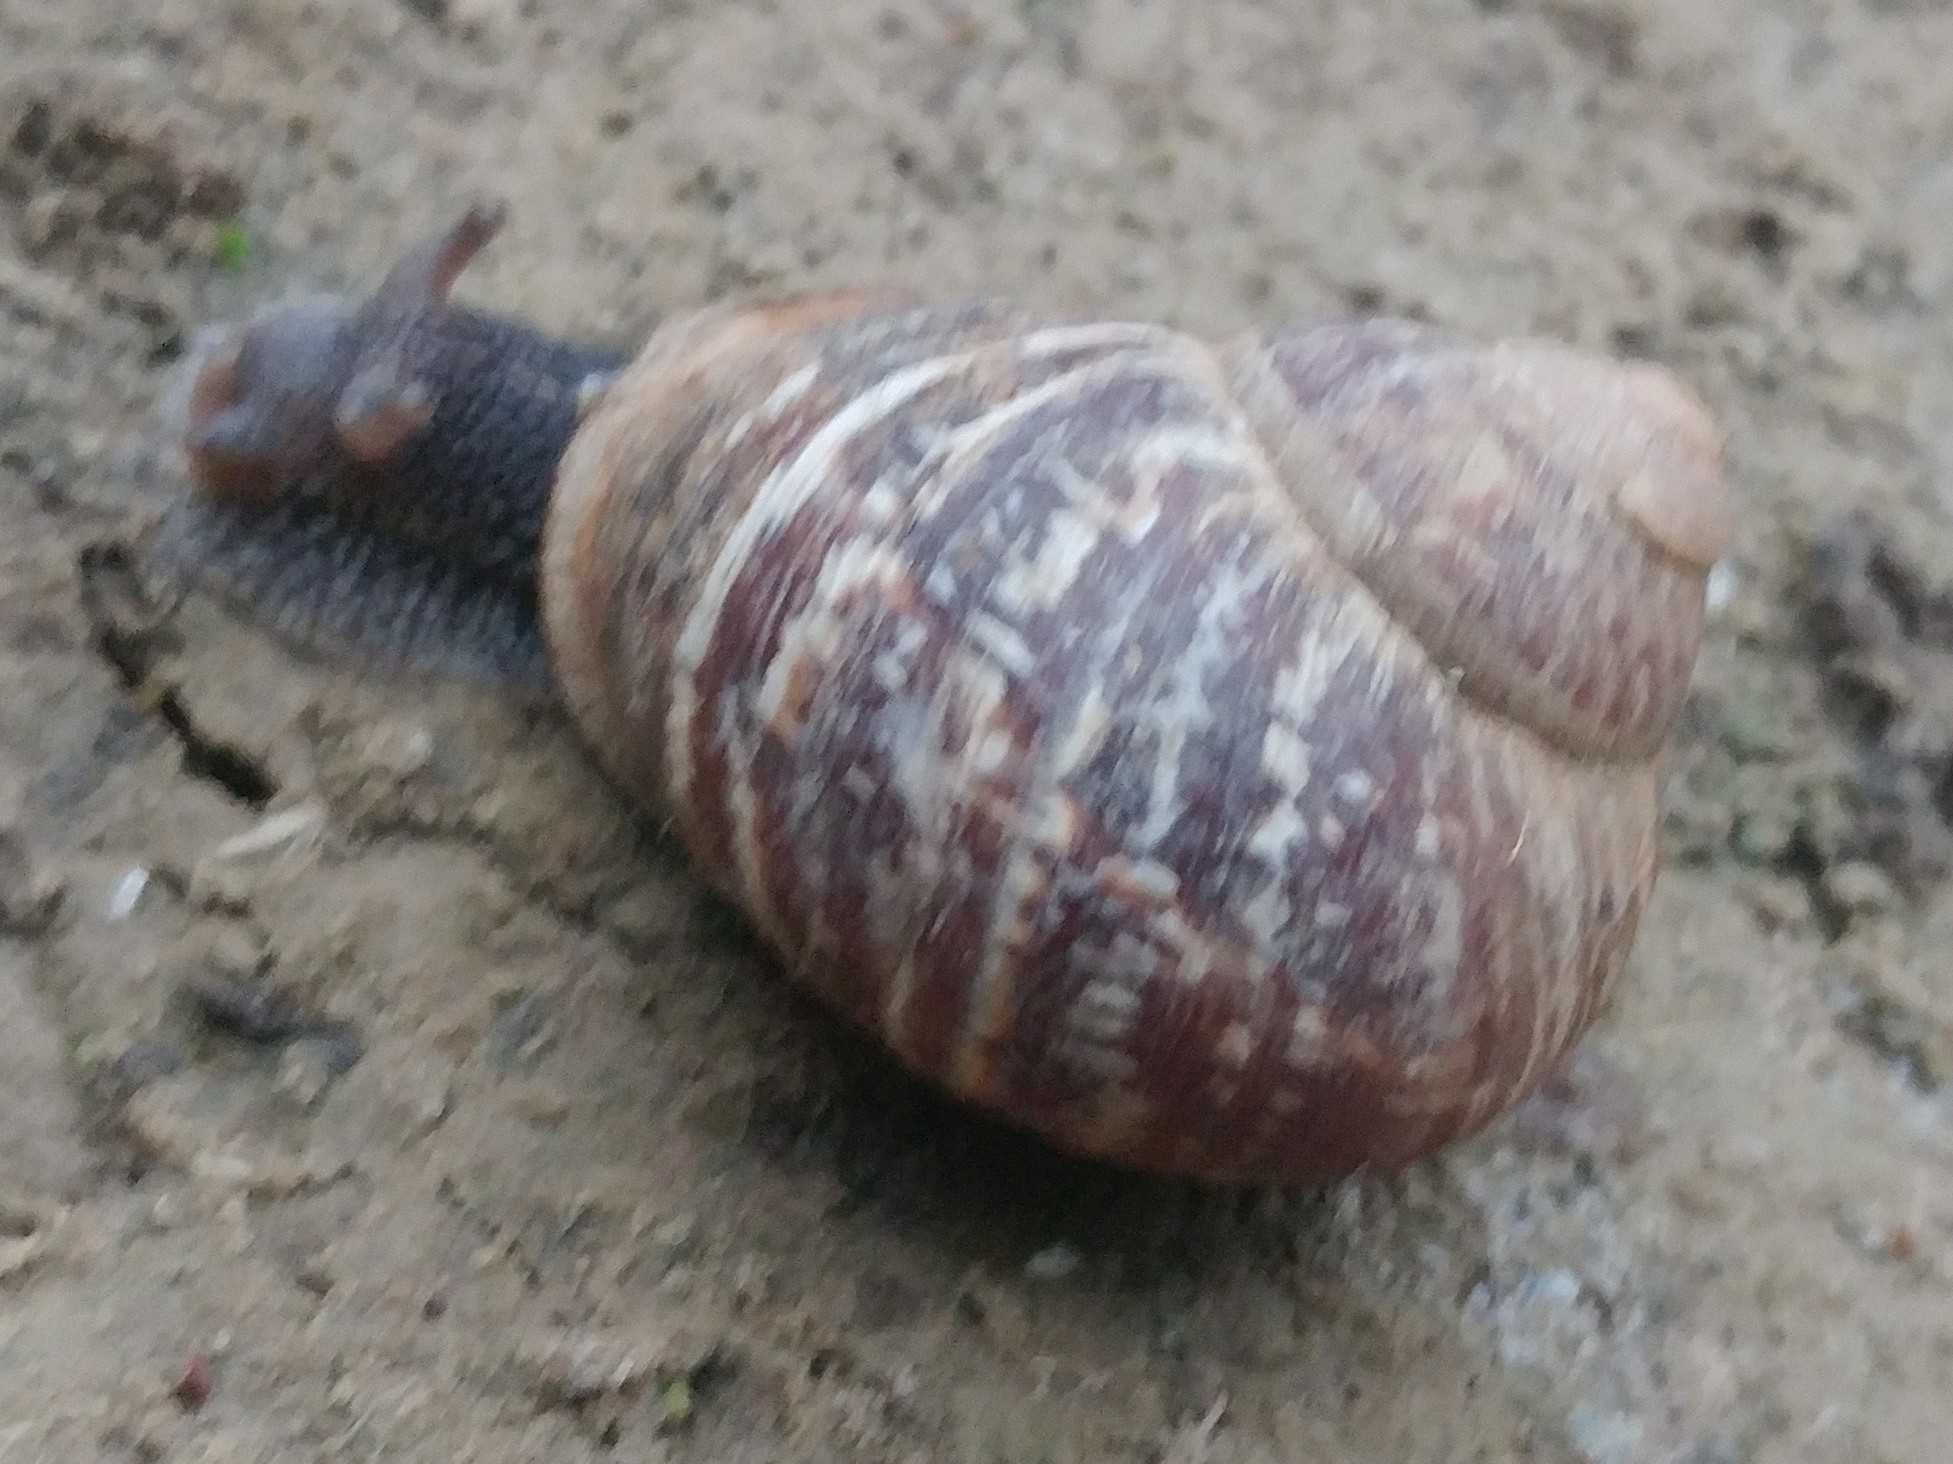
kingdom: Animalia
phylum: Mollusca
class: Gastropoda
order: Stylommatophora
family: Helicidae
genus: Cornu
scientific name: Cornu aspersum
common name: Brown garden snail
